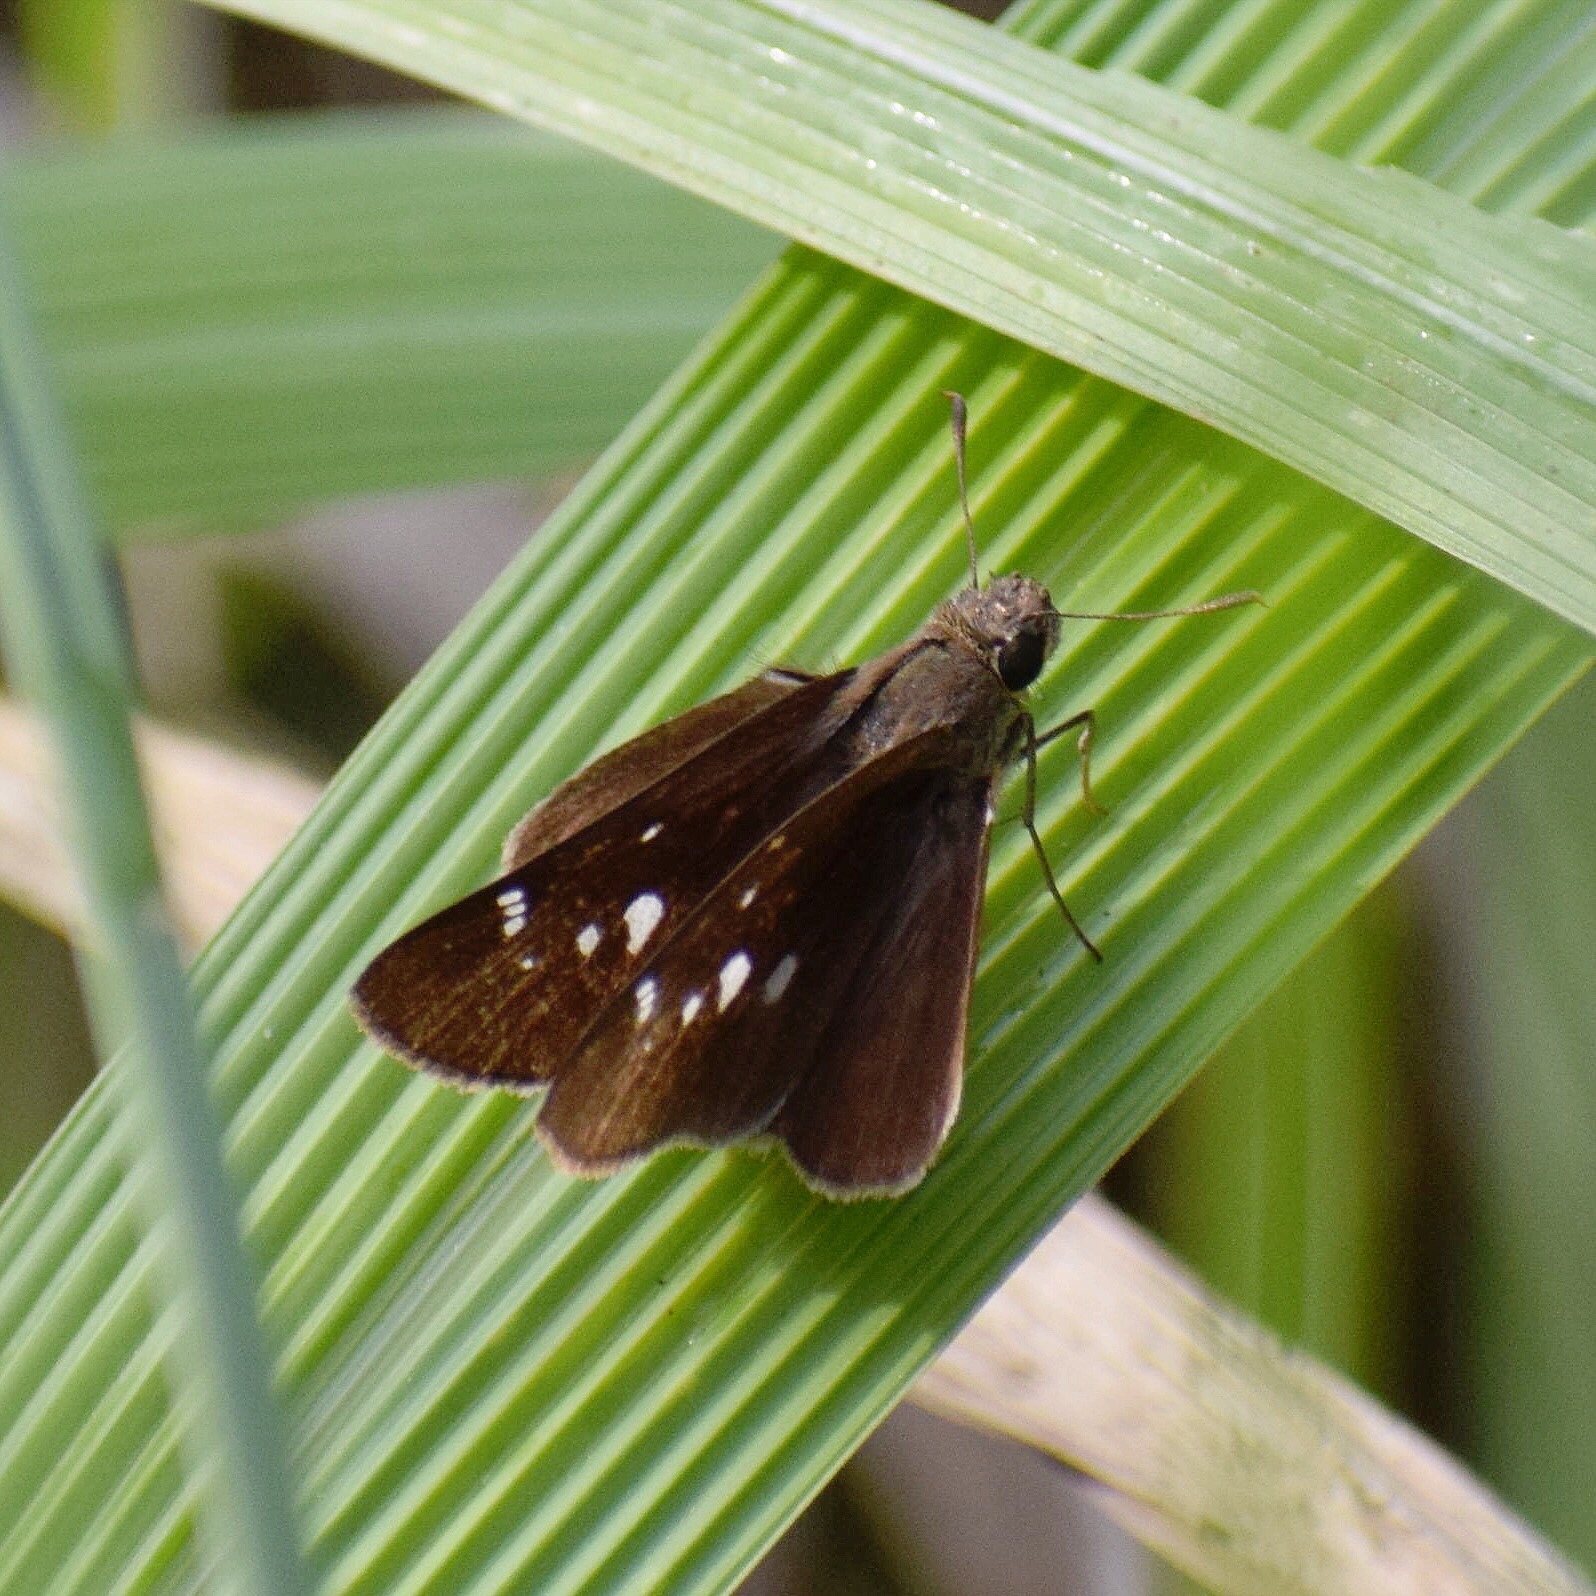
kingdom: Animalia
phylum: Arthropoda
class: Insecta
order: Lepidoptera
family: Hesperiidae
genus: Baoris
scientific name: Baoris fatuellus
